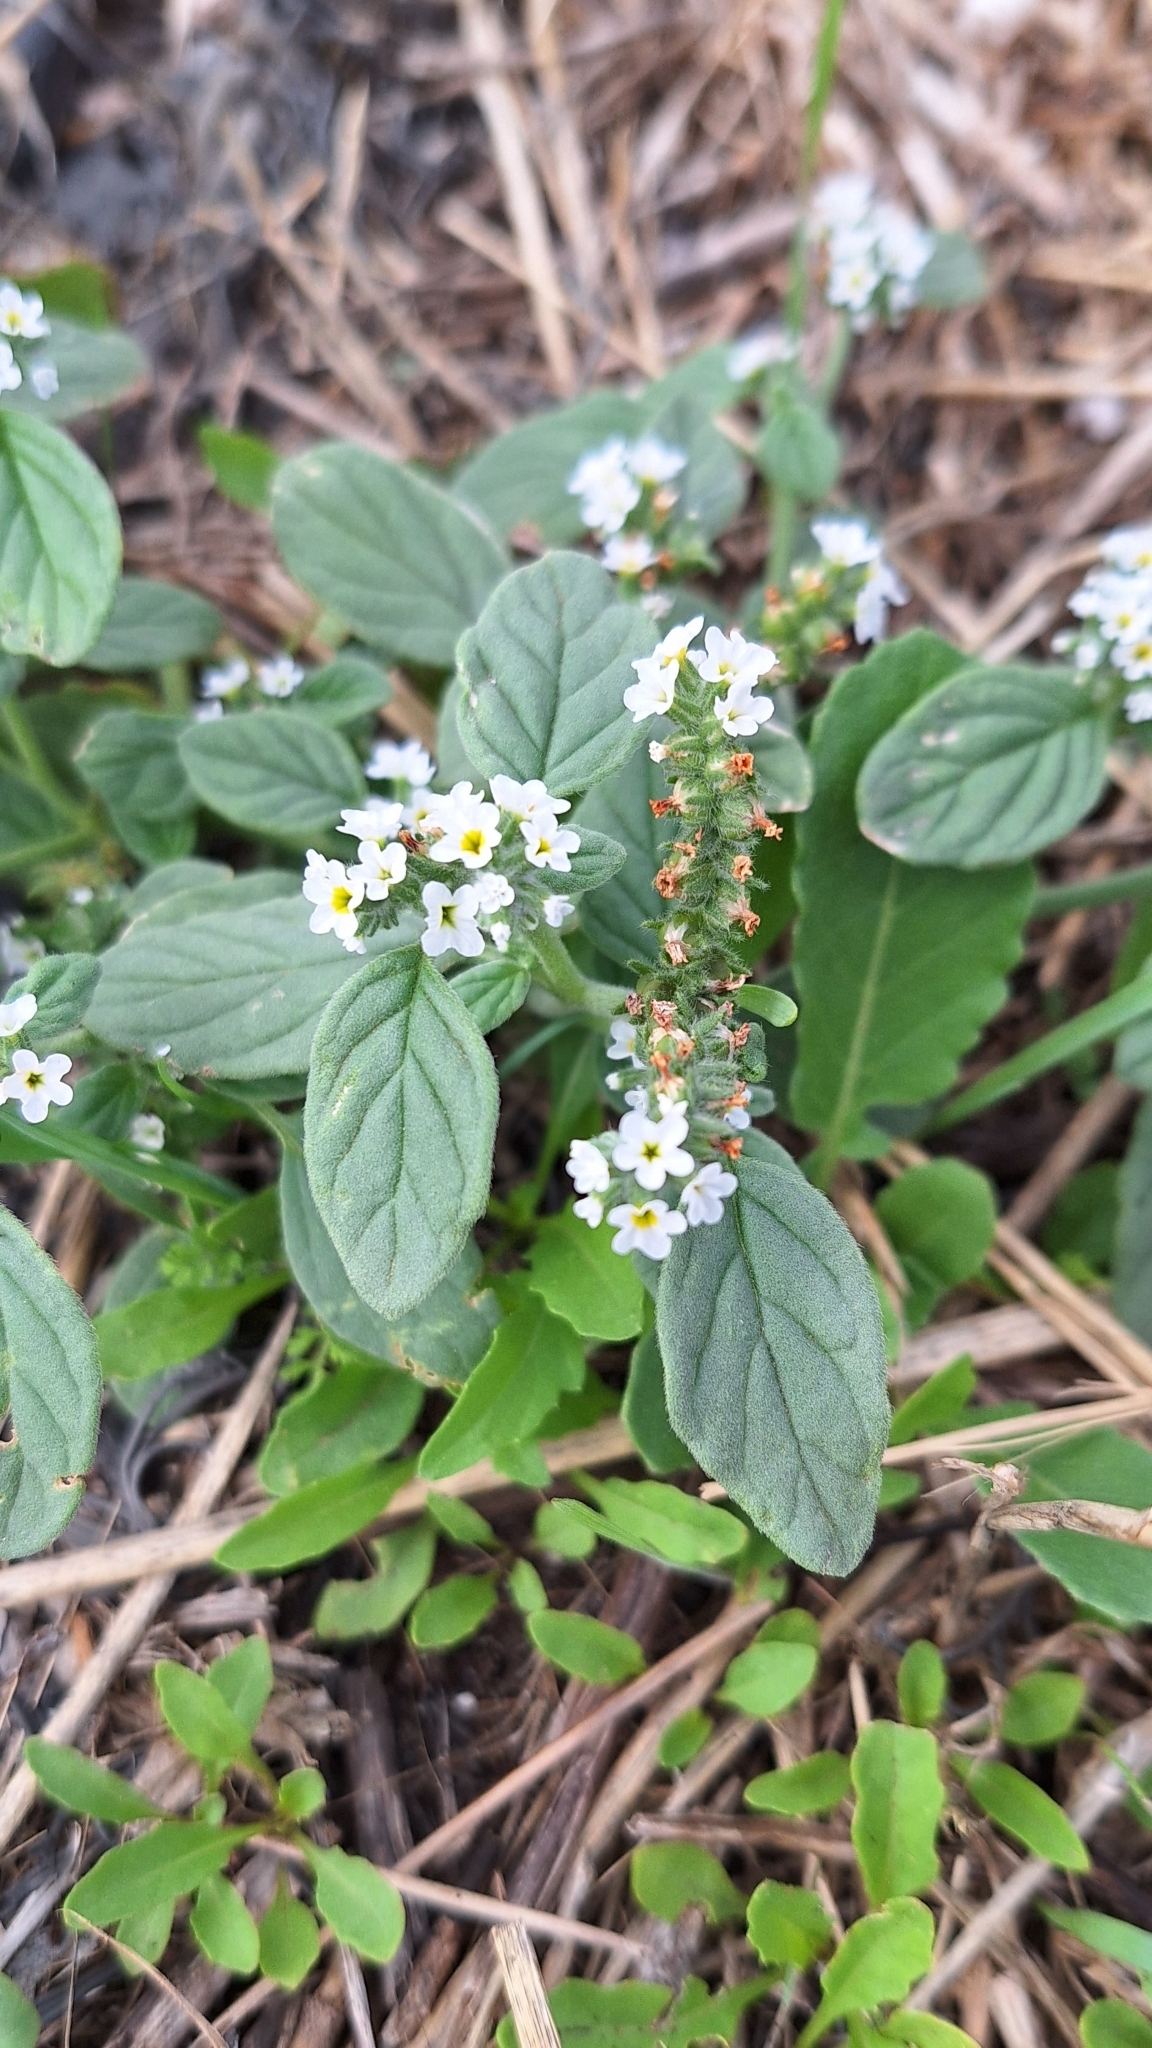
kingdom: Plantae
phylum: Tracheophyta
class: Magnoliopsida
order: Boraginales
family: Heliotropiaceae
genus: Heliotropium
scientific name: Heliotropium europaeum
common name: European heliotrope
